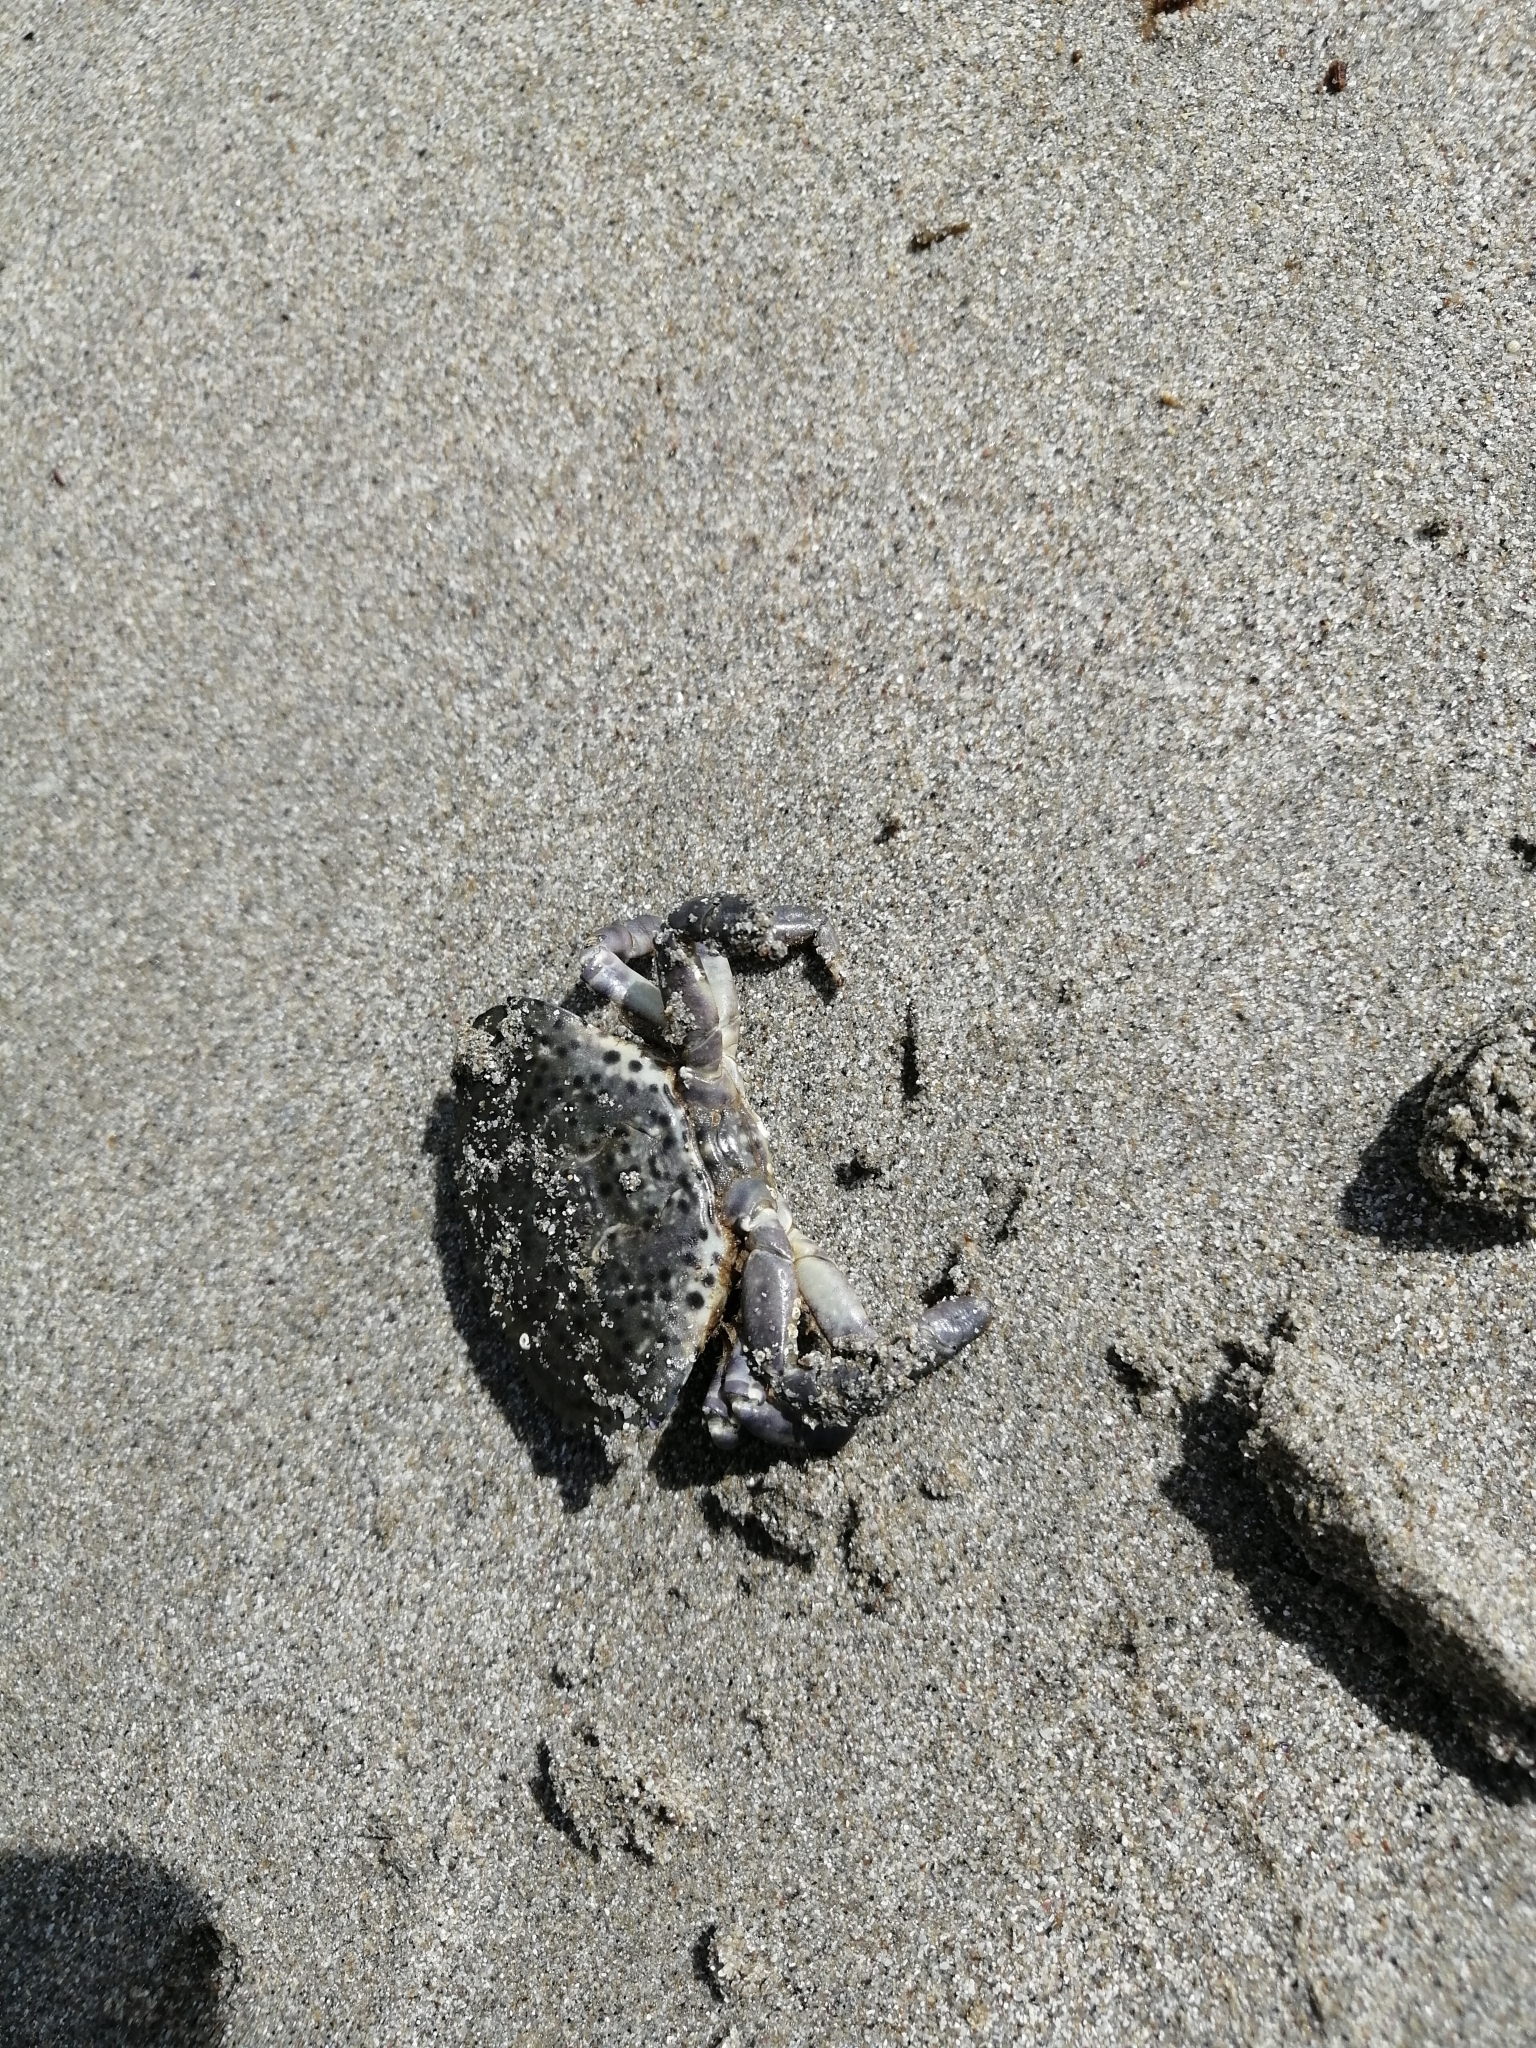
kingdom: Animalia
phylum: Arthropoda
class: Malacostraca
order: Decapoda
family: Xanthidae
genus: Xantho
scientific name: Xantho poressa
